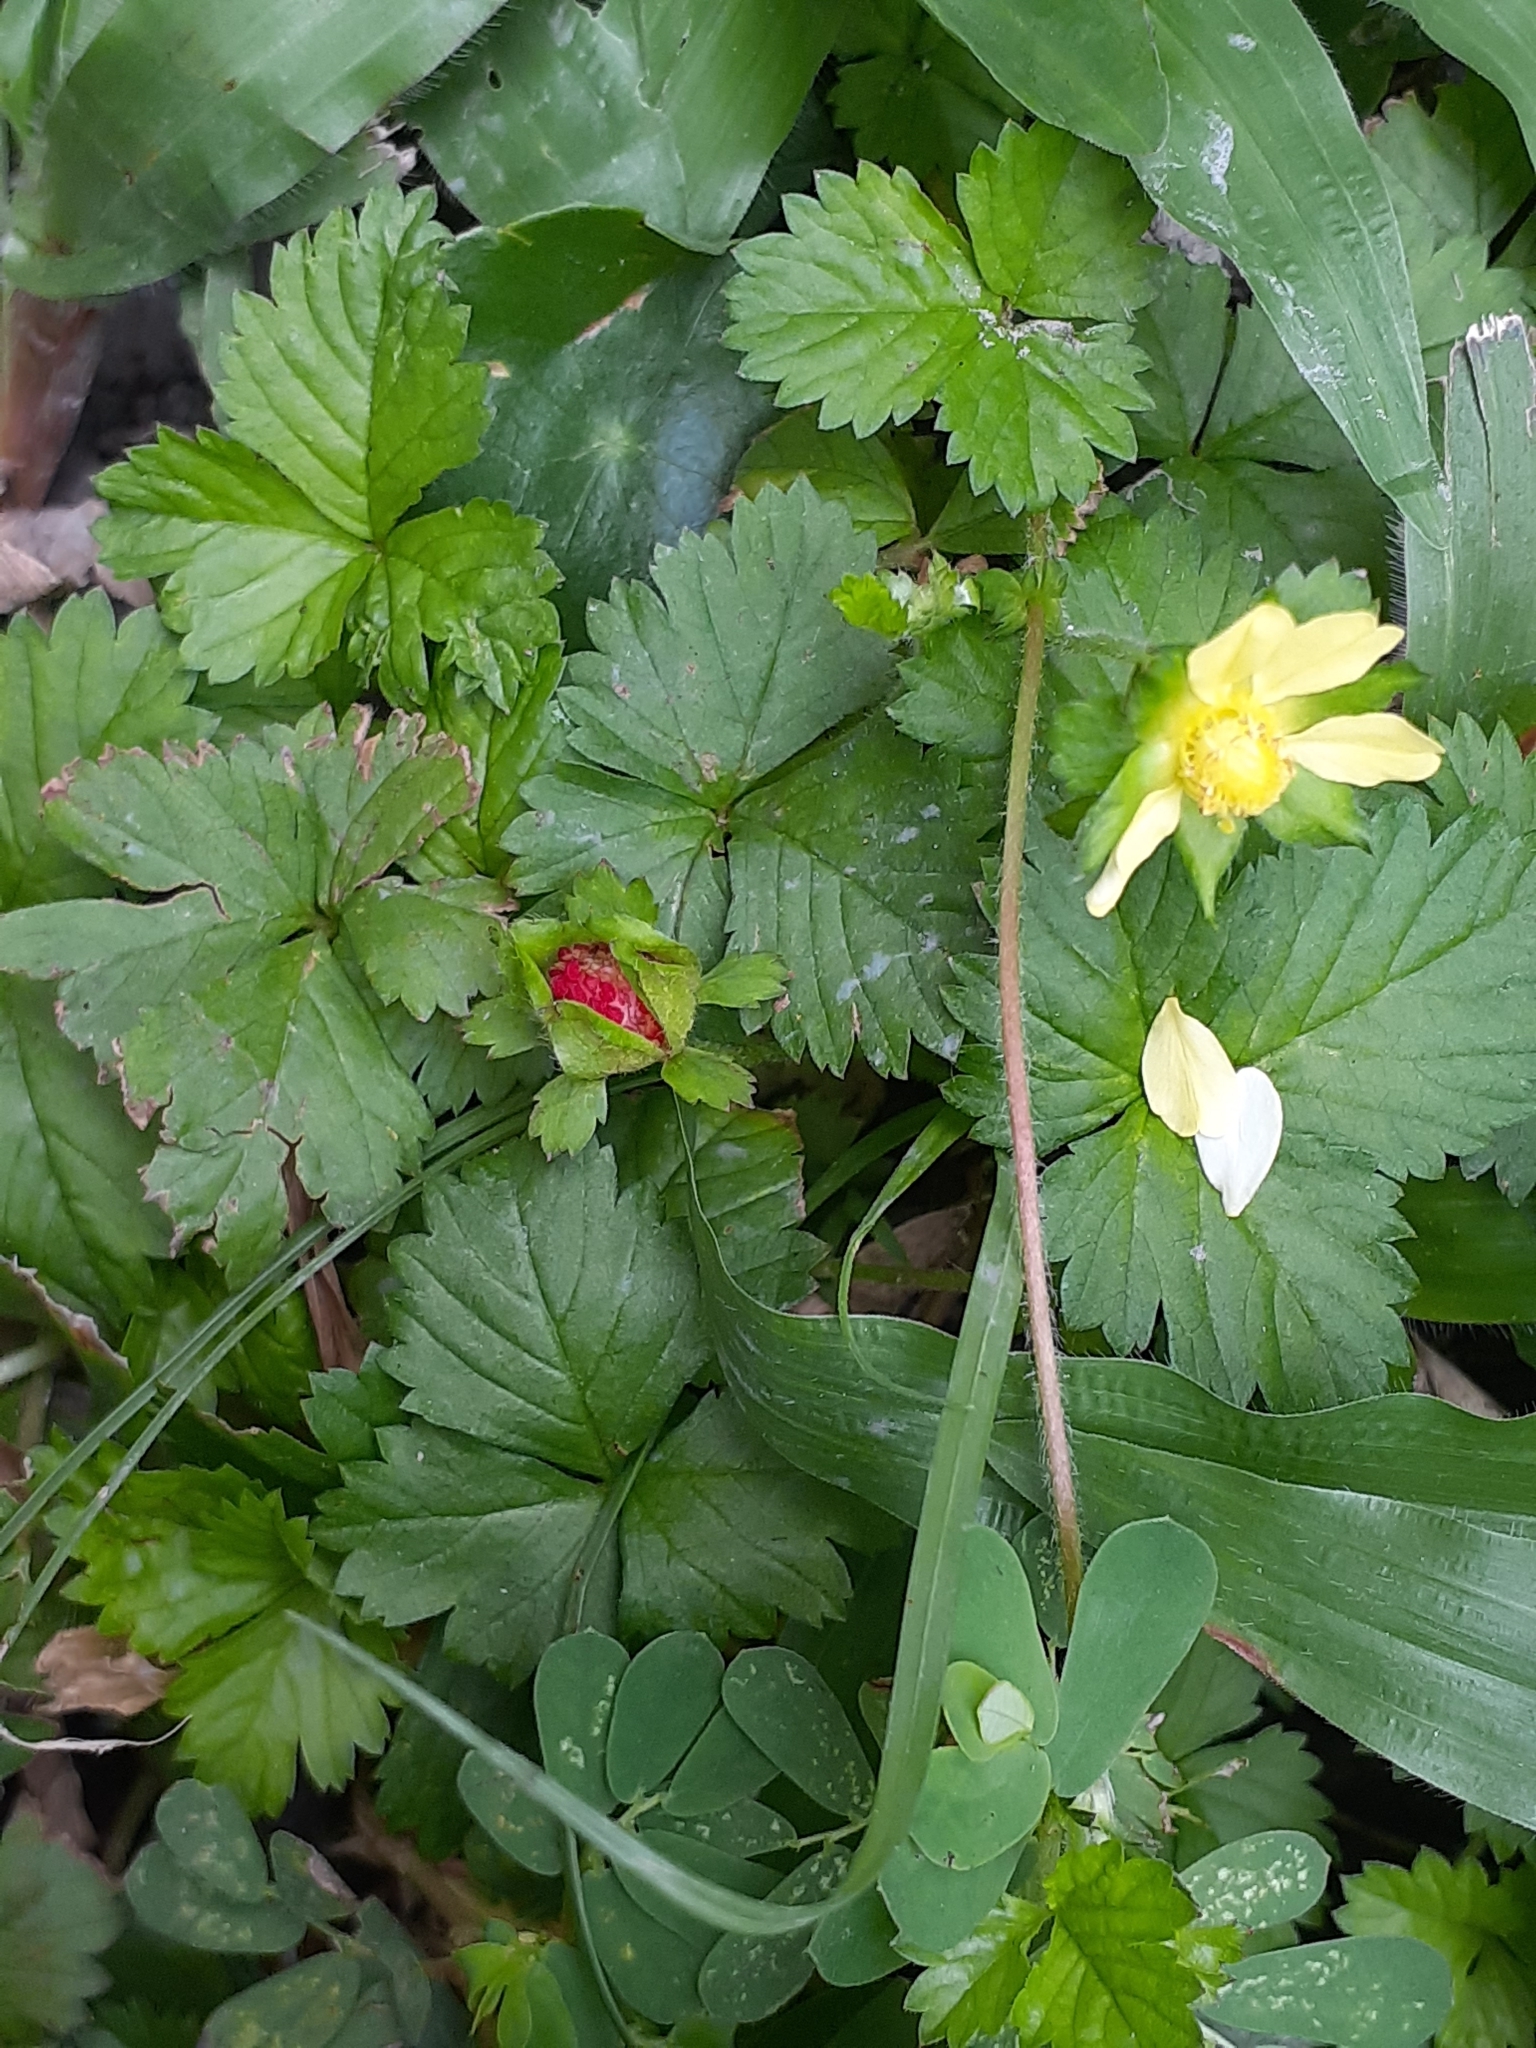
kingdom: Plantae
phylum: Tracheophyta
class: Magnoliopsida
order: Rosales
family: Rosaceae
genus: Potentilla
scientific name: Potentilla wallichiana
